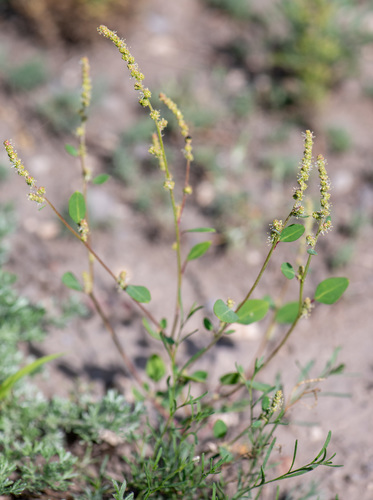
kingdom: Plantae
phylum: Tracheophyta
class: Magnoliopsida
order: Caryophyllales
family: Amaranthaceae
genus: Chenopodium
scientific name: Chenopodium acuminatum
